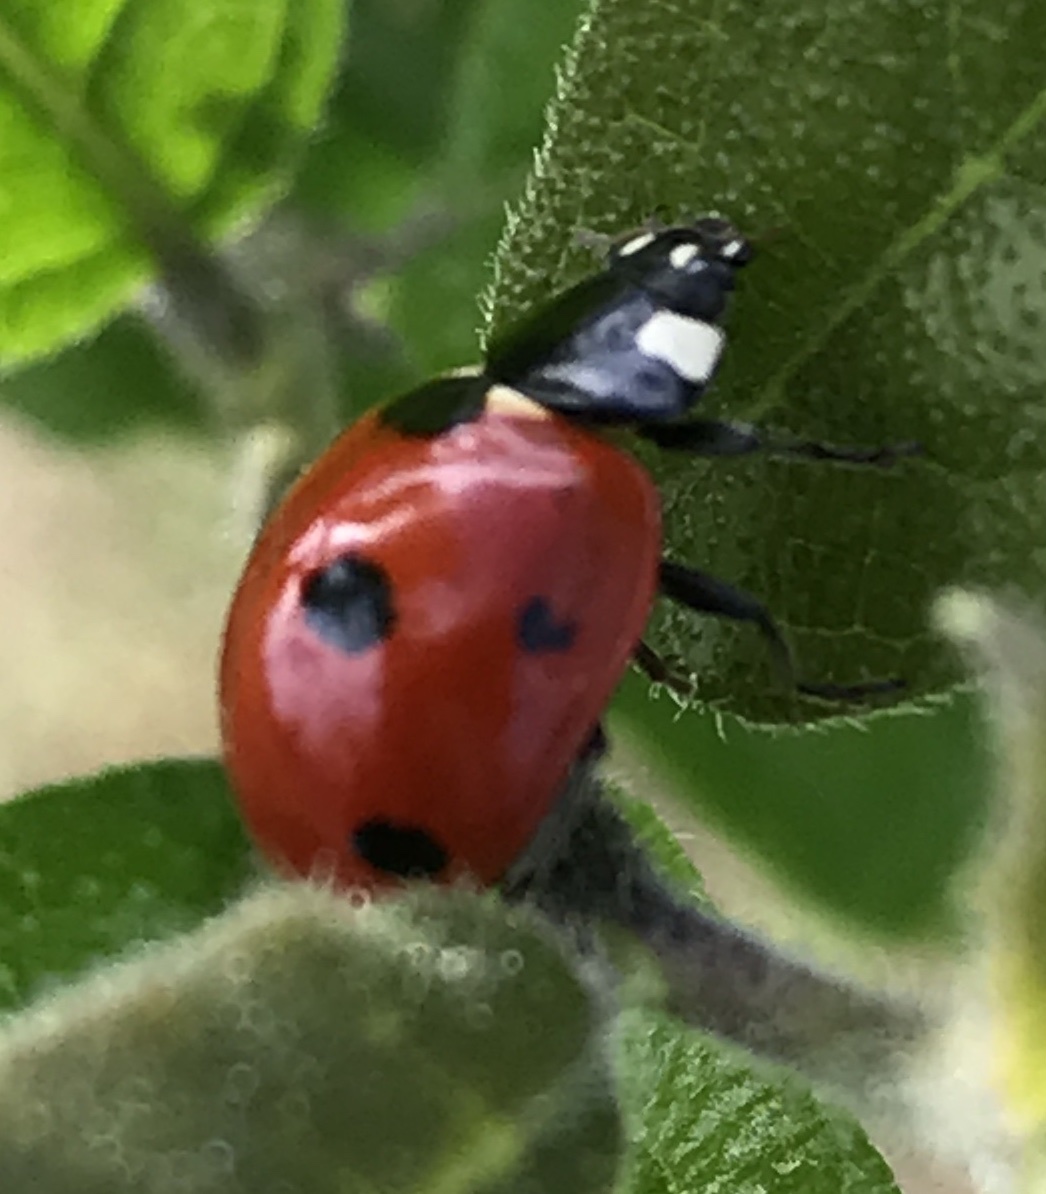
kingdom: Animalia
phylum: Arthropoda
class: Insecta
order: Coleoptera
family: Coccinellidae
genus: Coccinella
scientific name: Coccinella septempunctata
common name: Sevenspotted lady beetle
